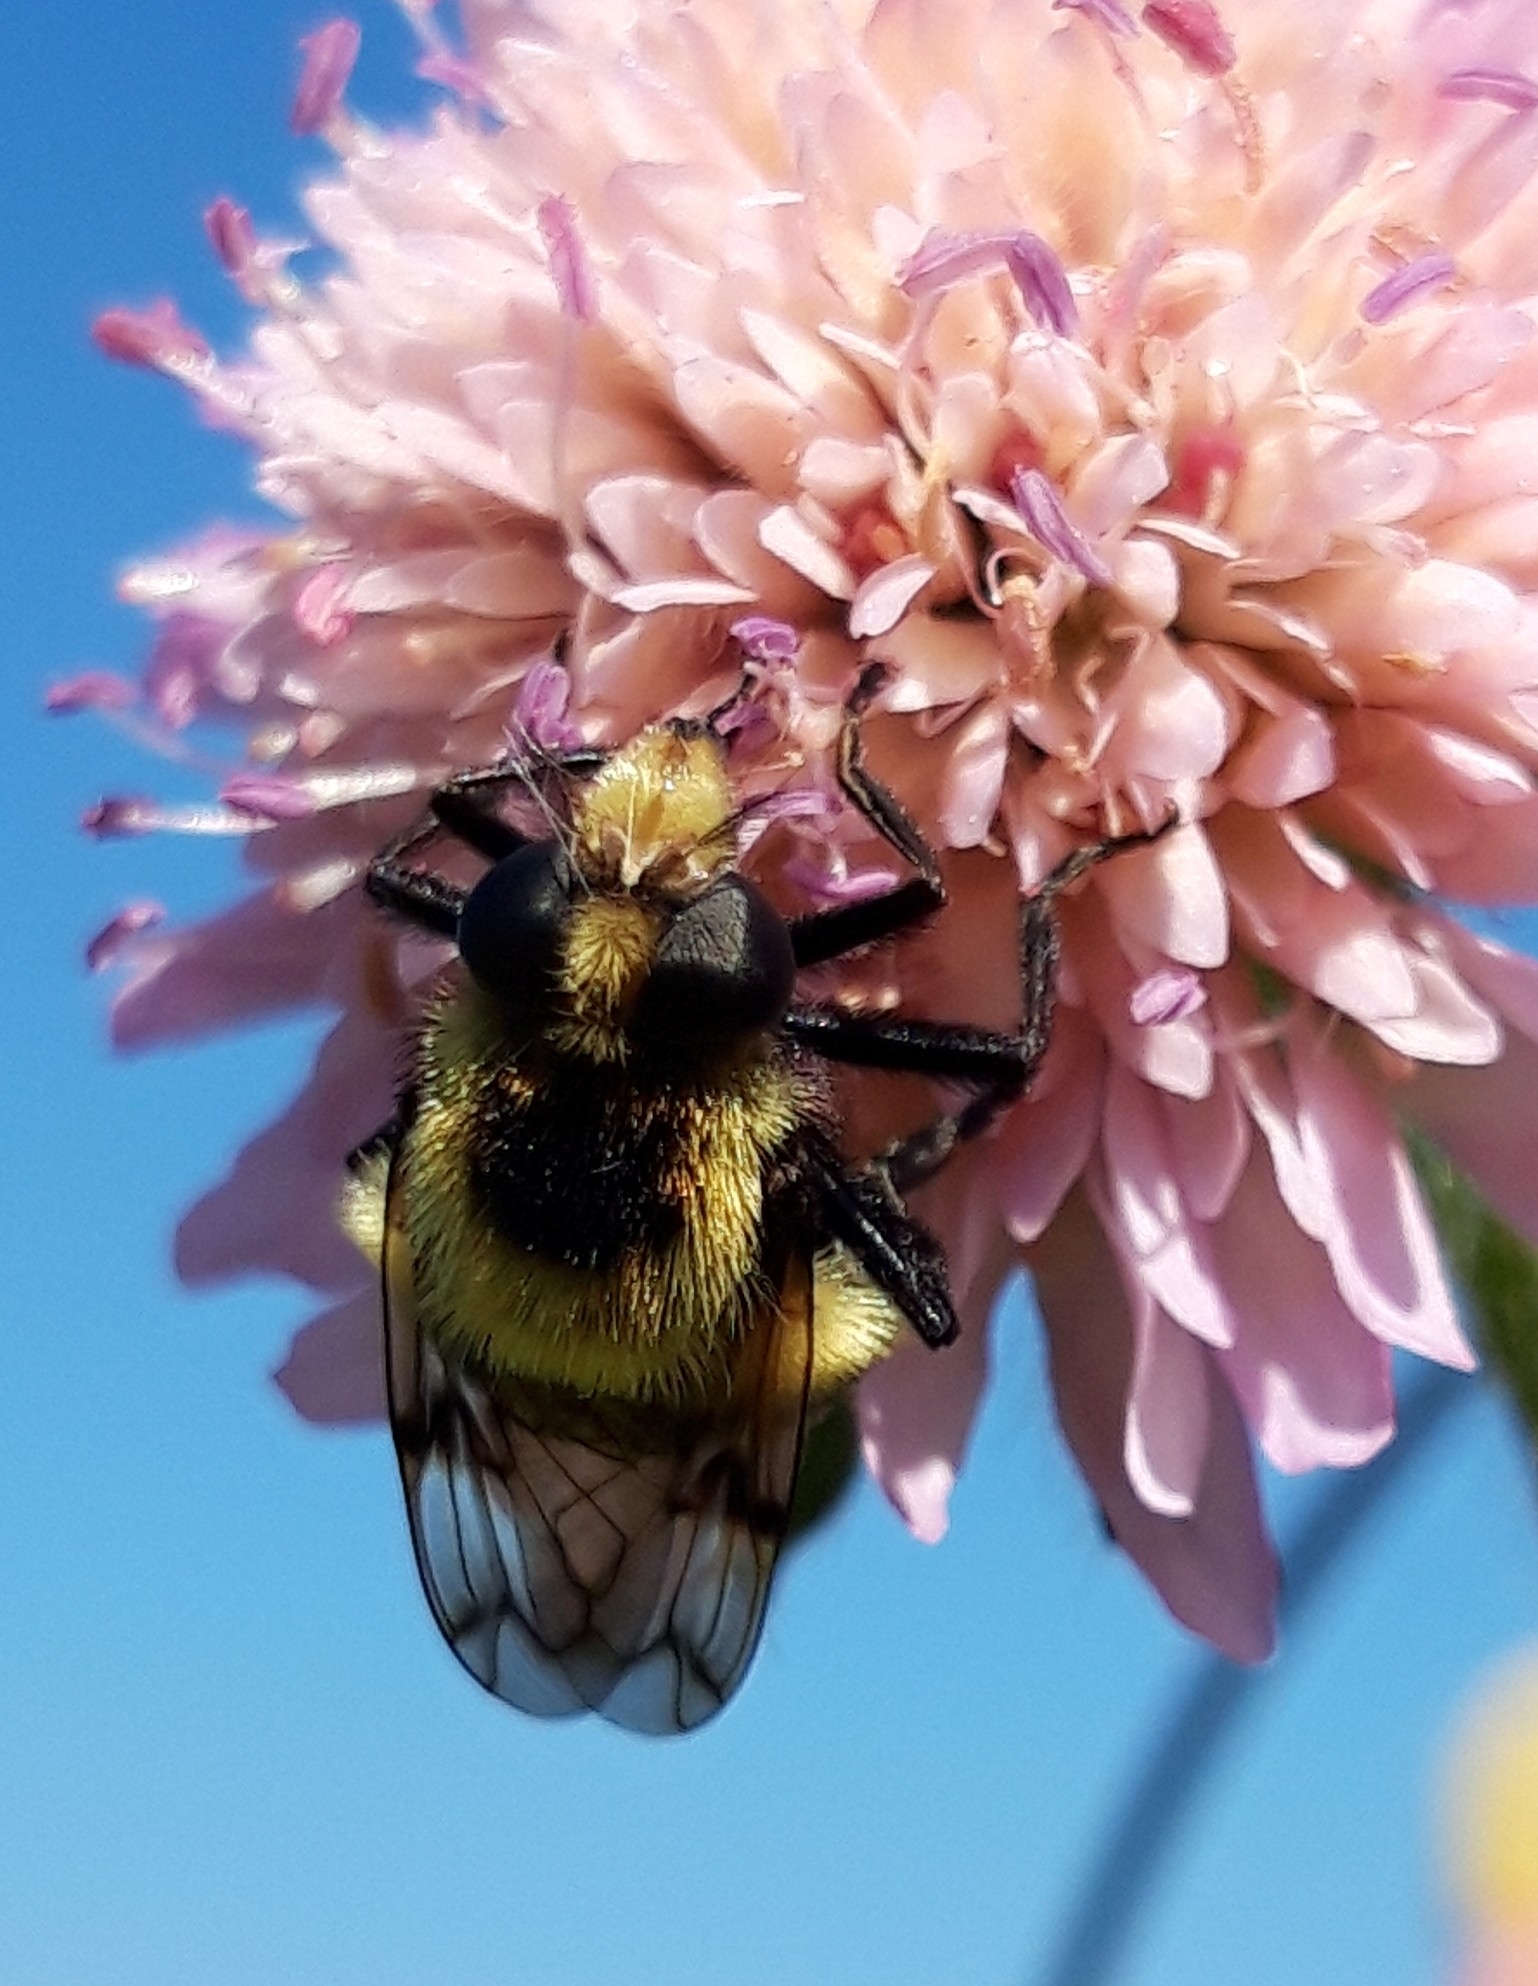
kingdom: Animalia
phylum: Arthropoda
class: Insecta
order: Diptera
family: Syrphidae
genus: Volucella
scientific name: Volucella bombylans
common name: Bumble bee hover fly
